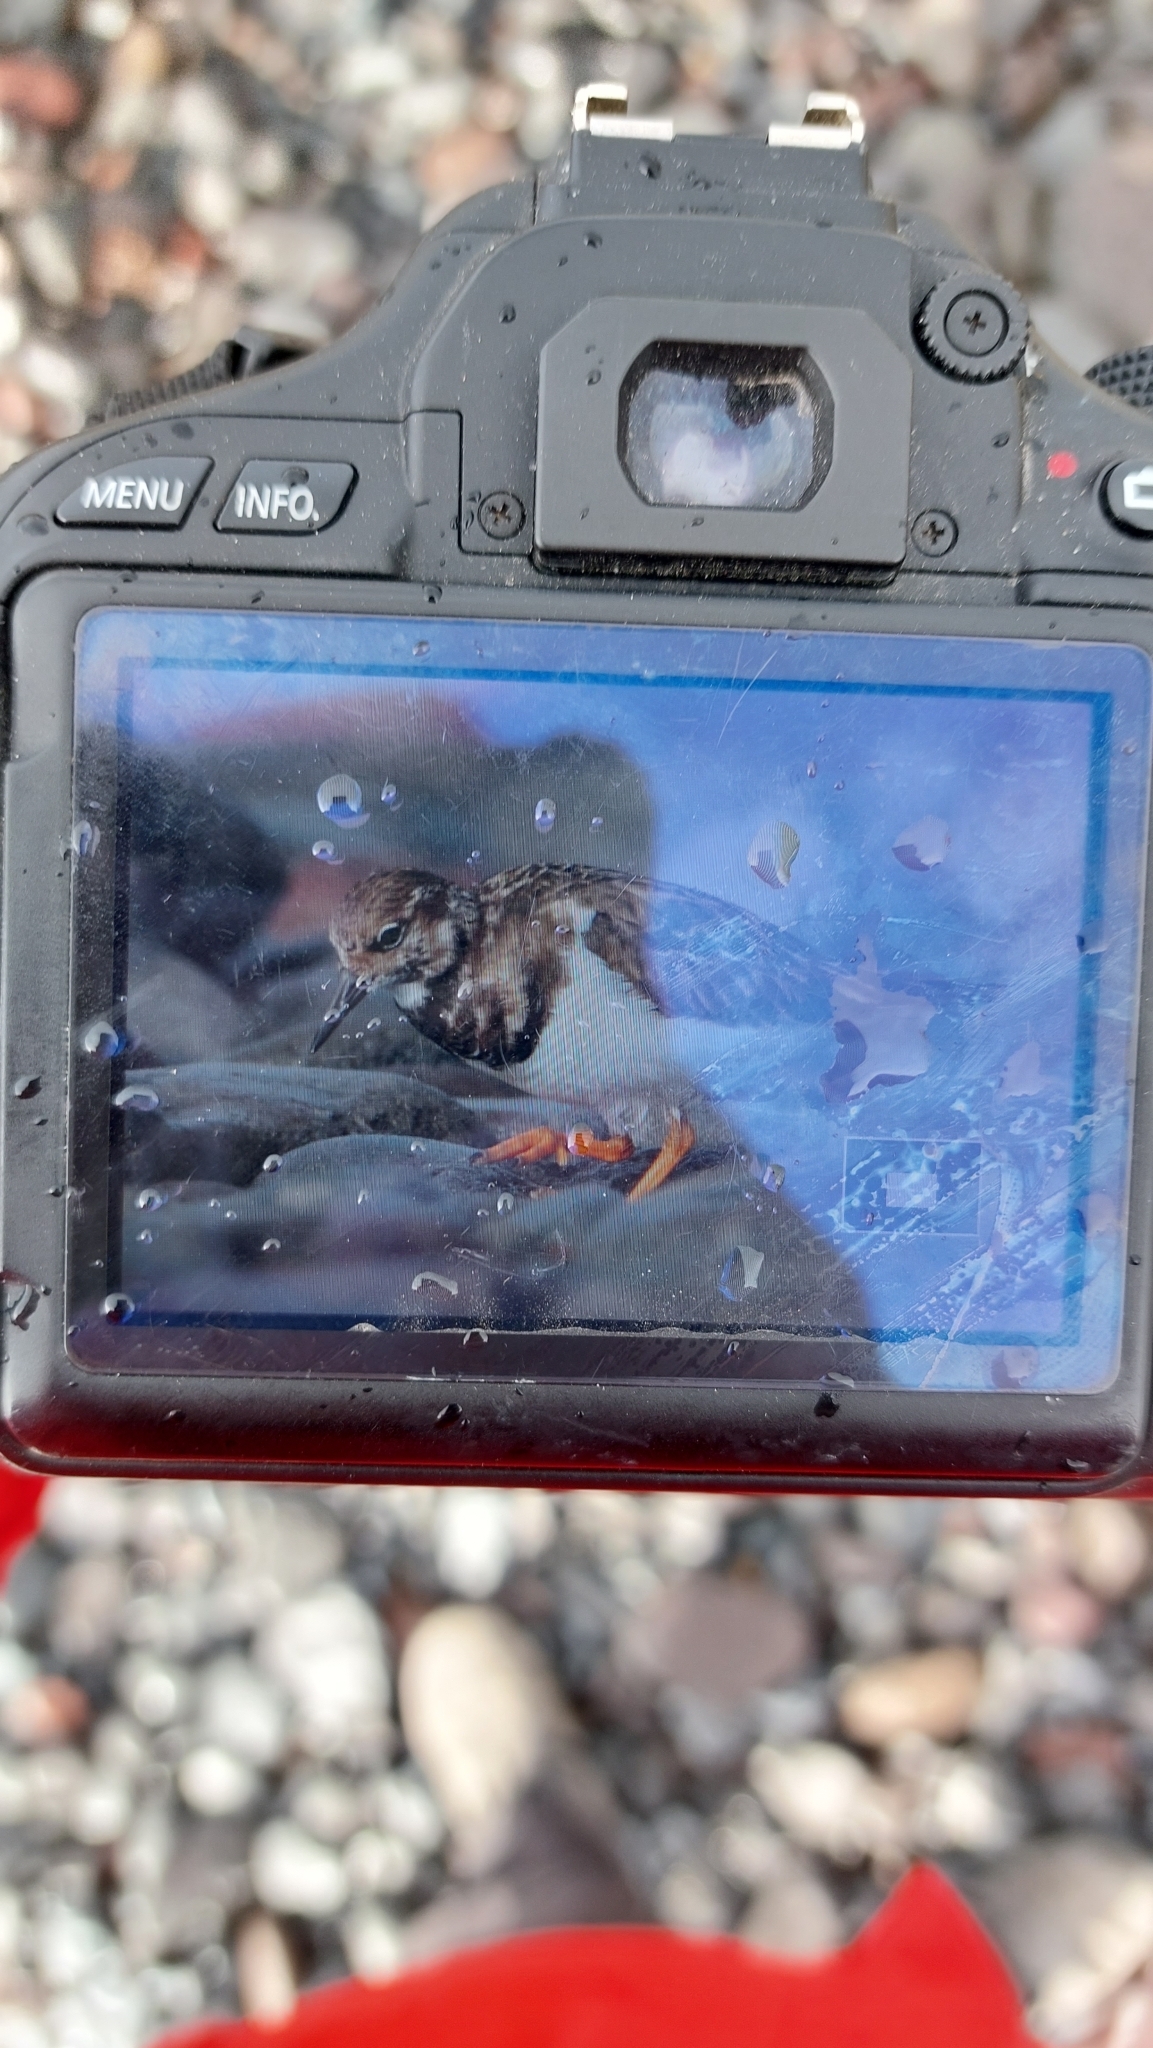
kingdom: Animalia
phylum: Chordata
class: Aves
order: Charadriiformes
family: Scolopacidae
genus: Arenaria
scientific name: Arenaria interpres
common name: Ruddy turnstone
